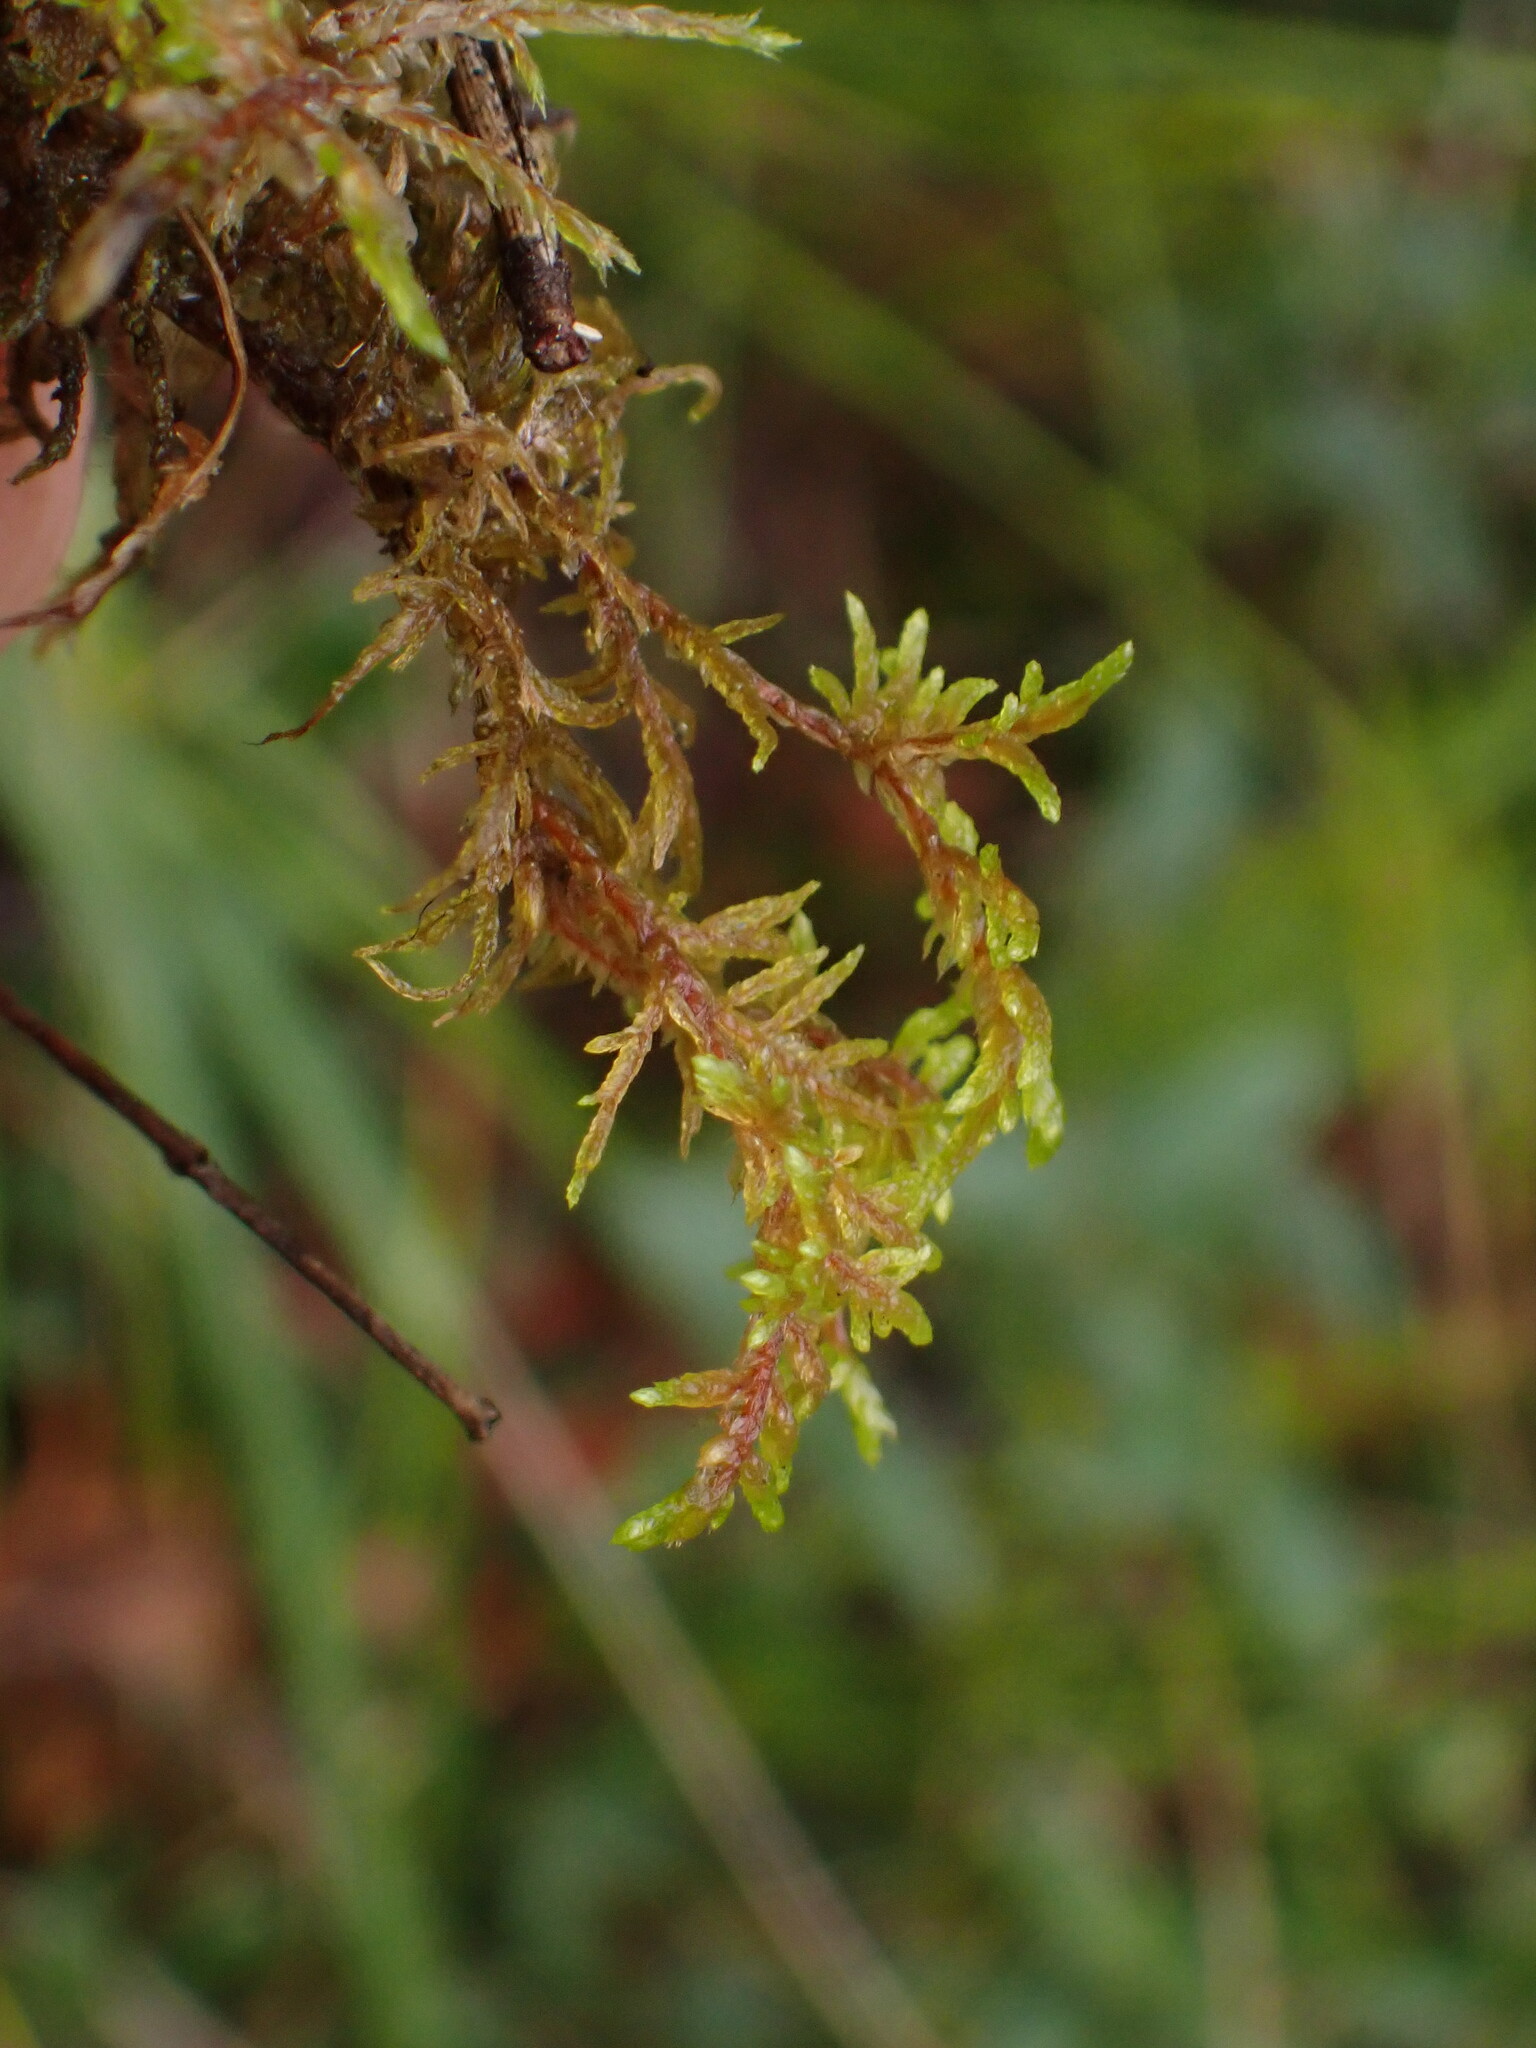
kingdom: Plantae
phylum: Bryophyta
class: Bryopsida
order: Hypnales
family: Hylocomiaceae
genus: Hylocomium
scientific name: Hylocomium splendens
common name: Stairstep moss
